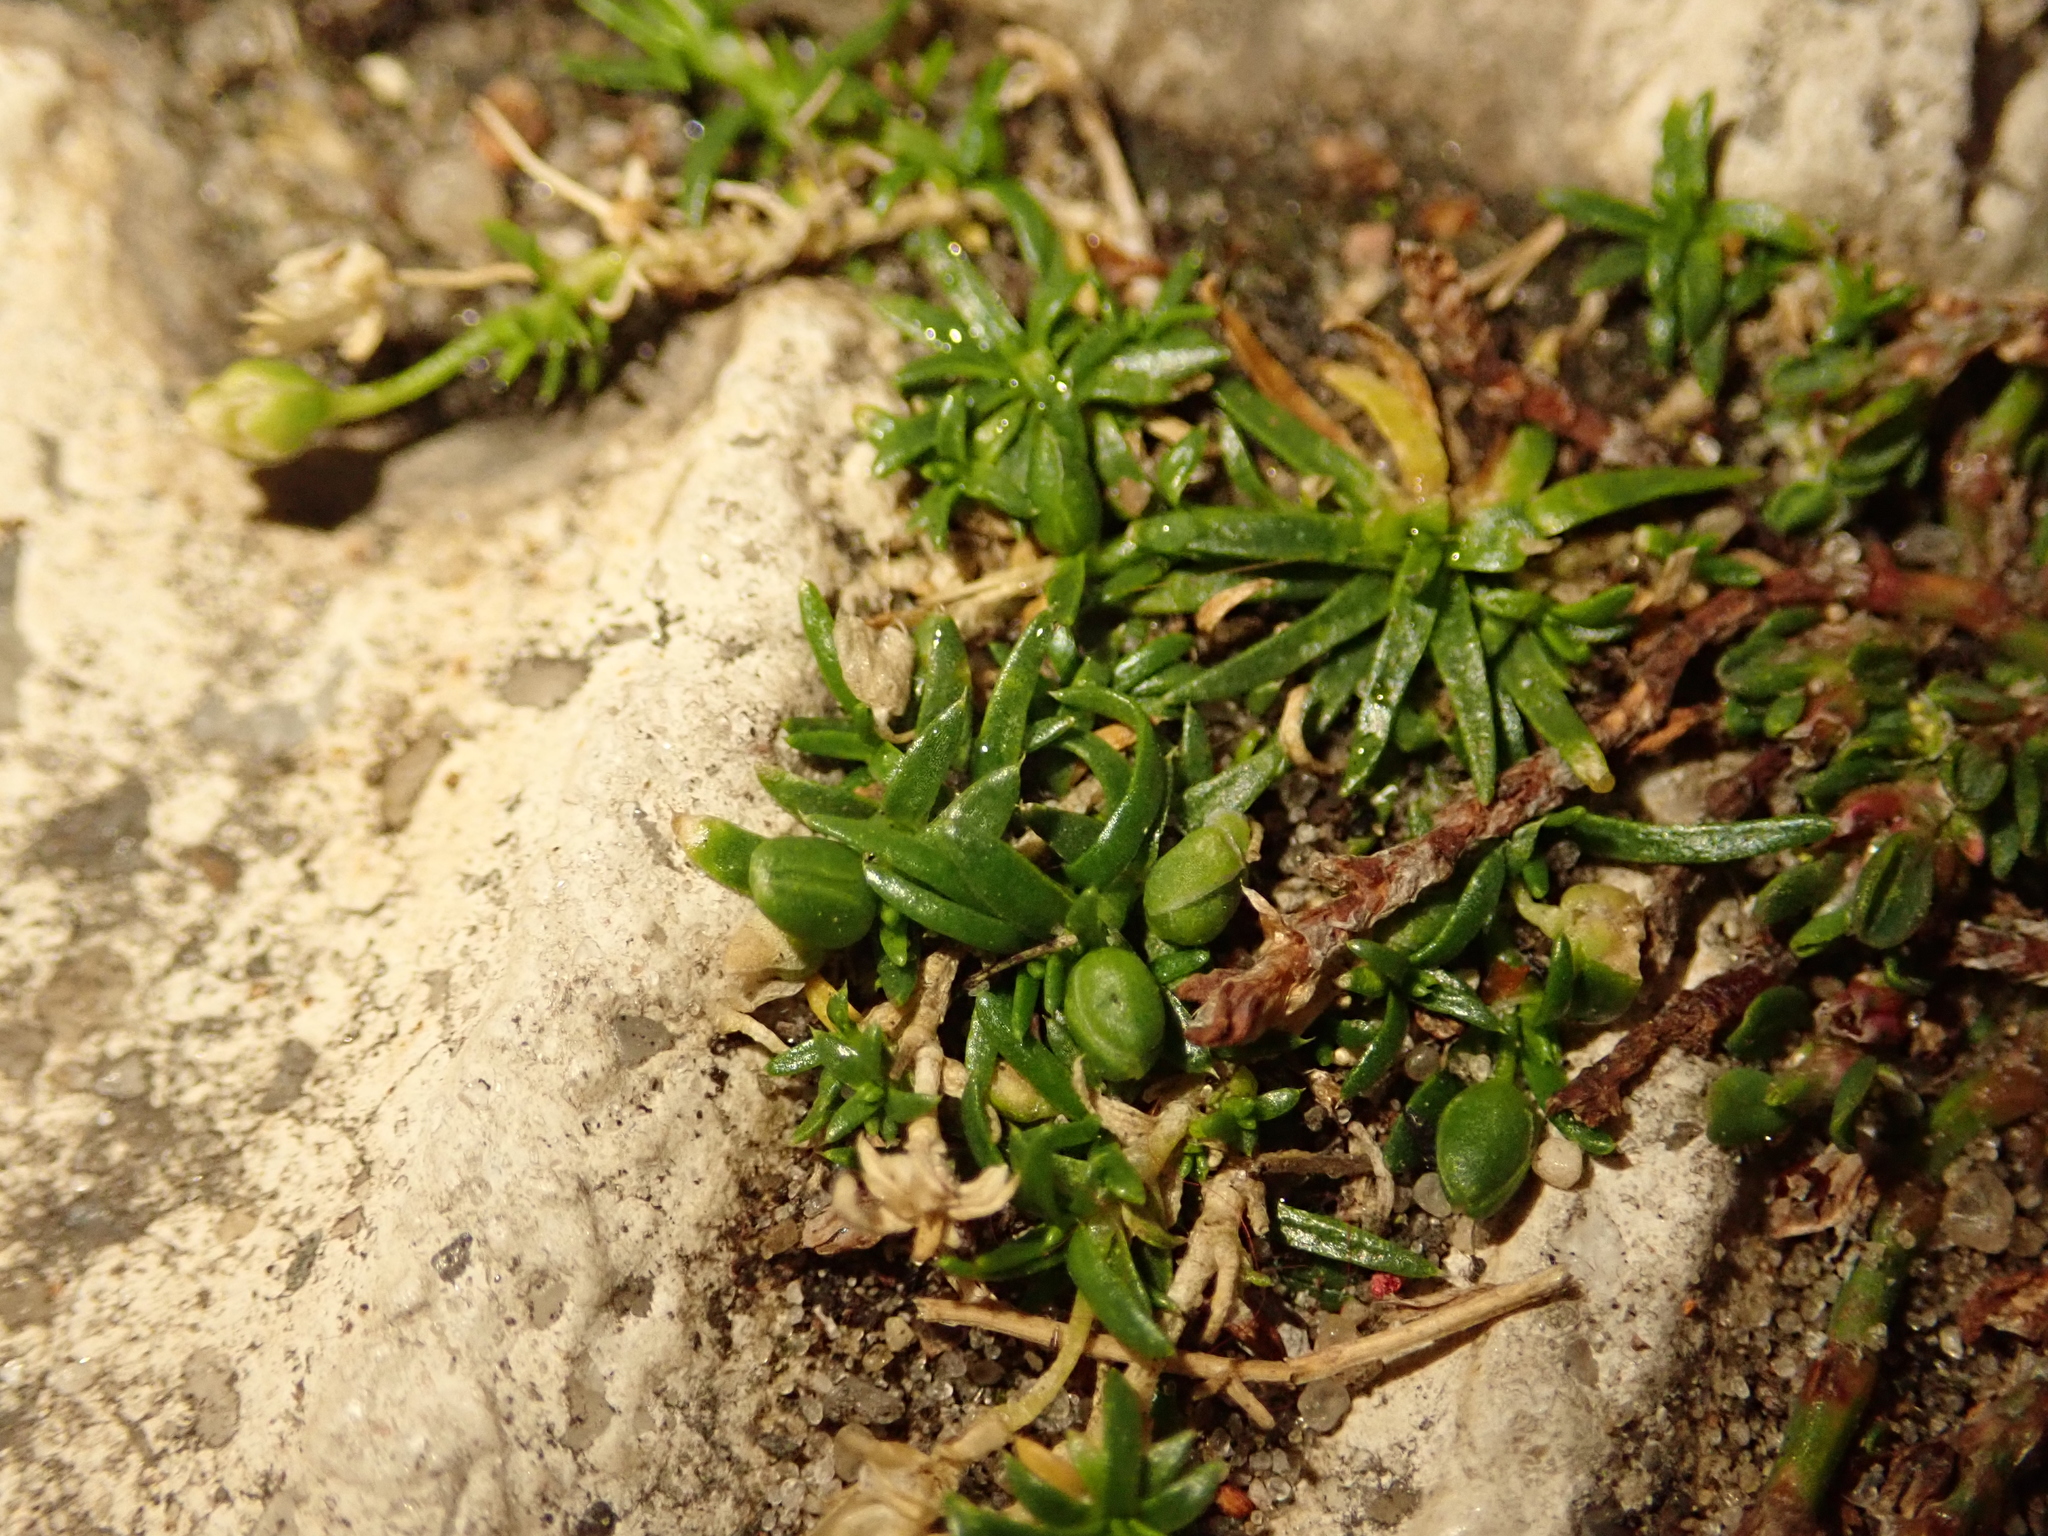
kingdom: Plantae
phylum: Tracheophyta
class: Magnoliopsida
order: Caryophyllales
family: Caryophyllaceae
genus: Sagina
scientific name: Sagina procumbens
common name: Procumbent pearlwort
